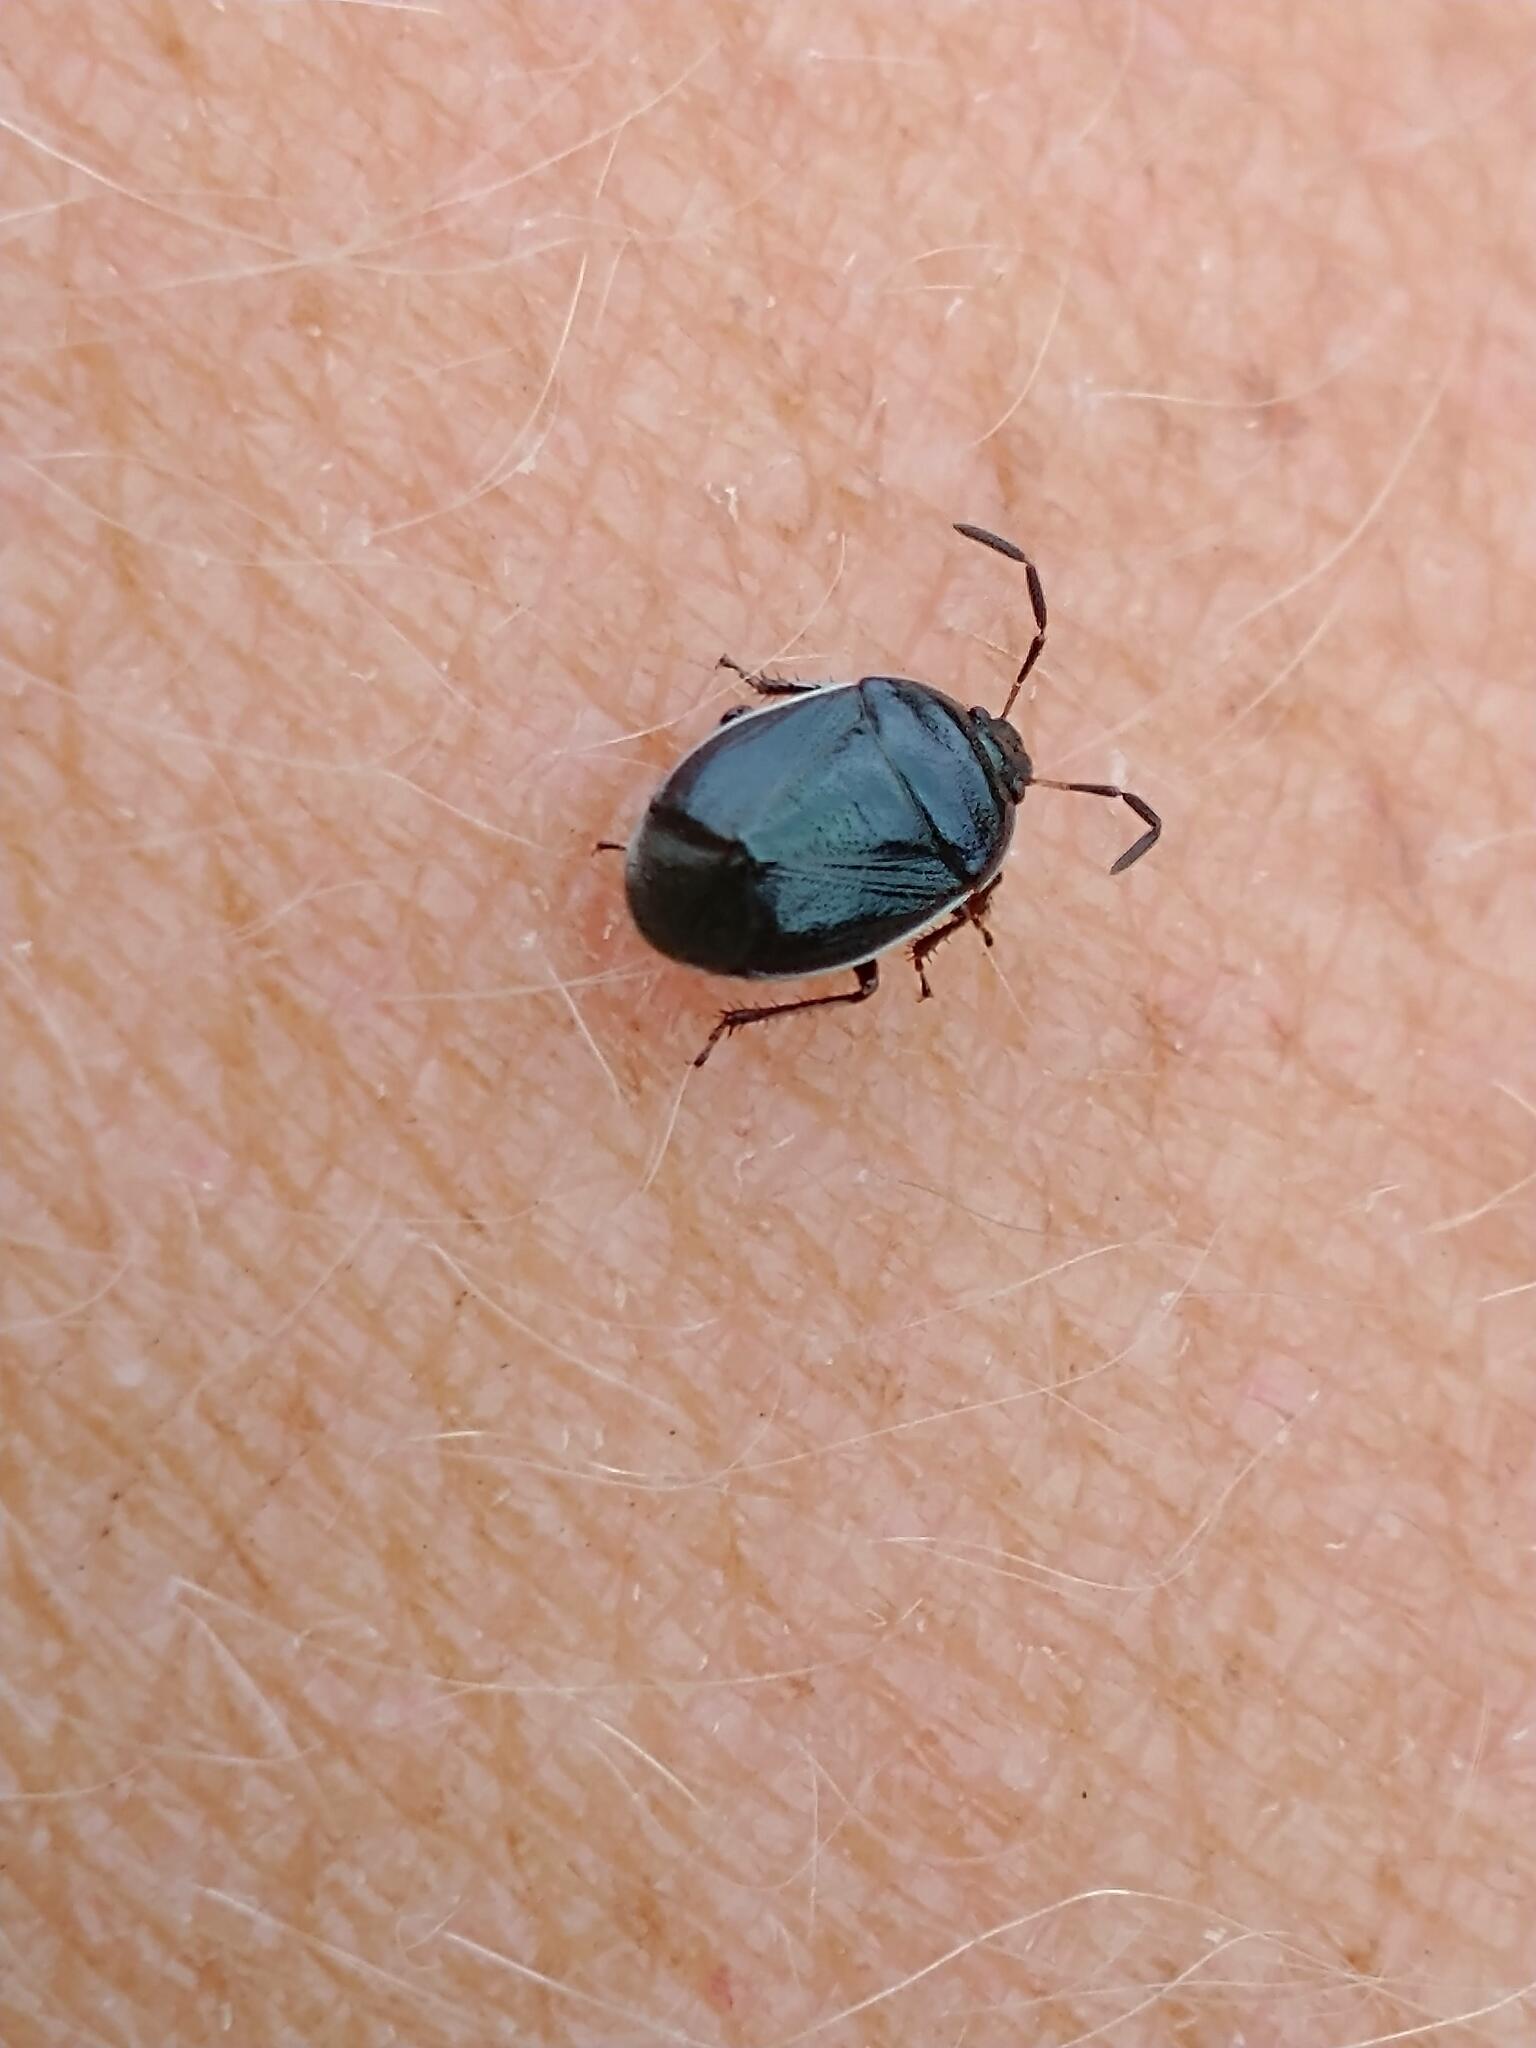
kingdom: Animalia
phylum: Arthropoda
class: Insecta
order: Hemiptera
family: Cydnidae
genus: Sehirus
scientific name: Sehirus cinctus
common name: White-margined burrower bug
